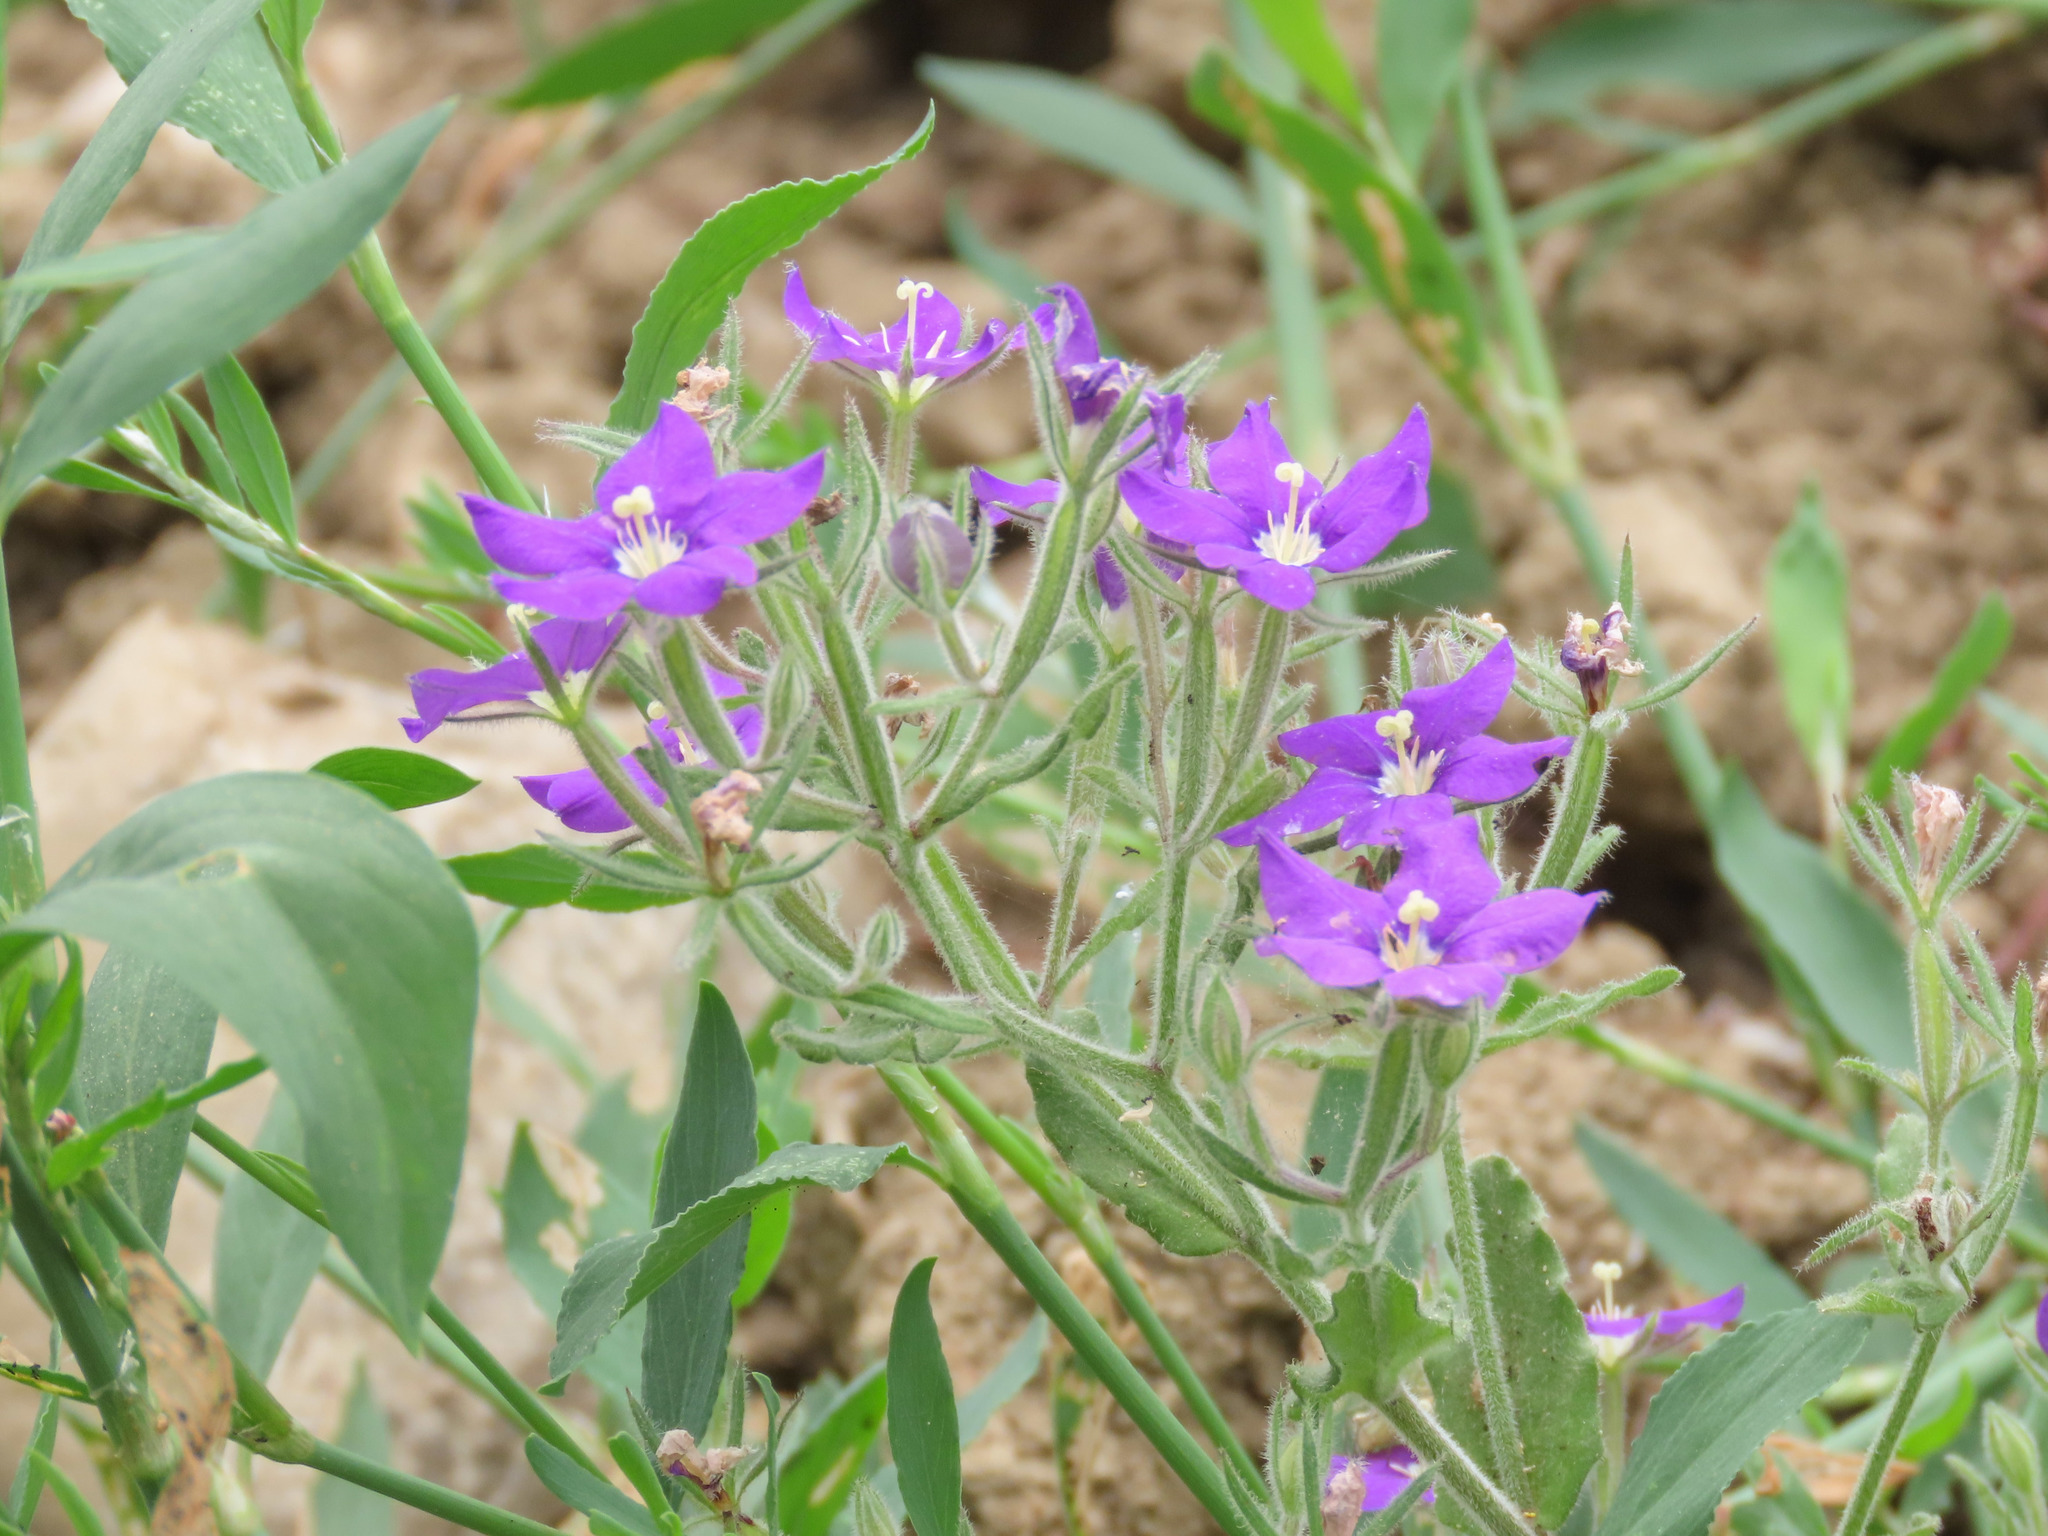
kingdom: Plantae
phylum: Tracheophyta
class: Magnoliopsida
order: Asterales
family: Campanulaceae
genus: Legousia
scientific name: Legousia speculum-veneris
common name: Large venus's-looking-glass
